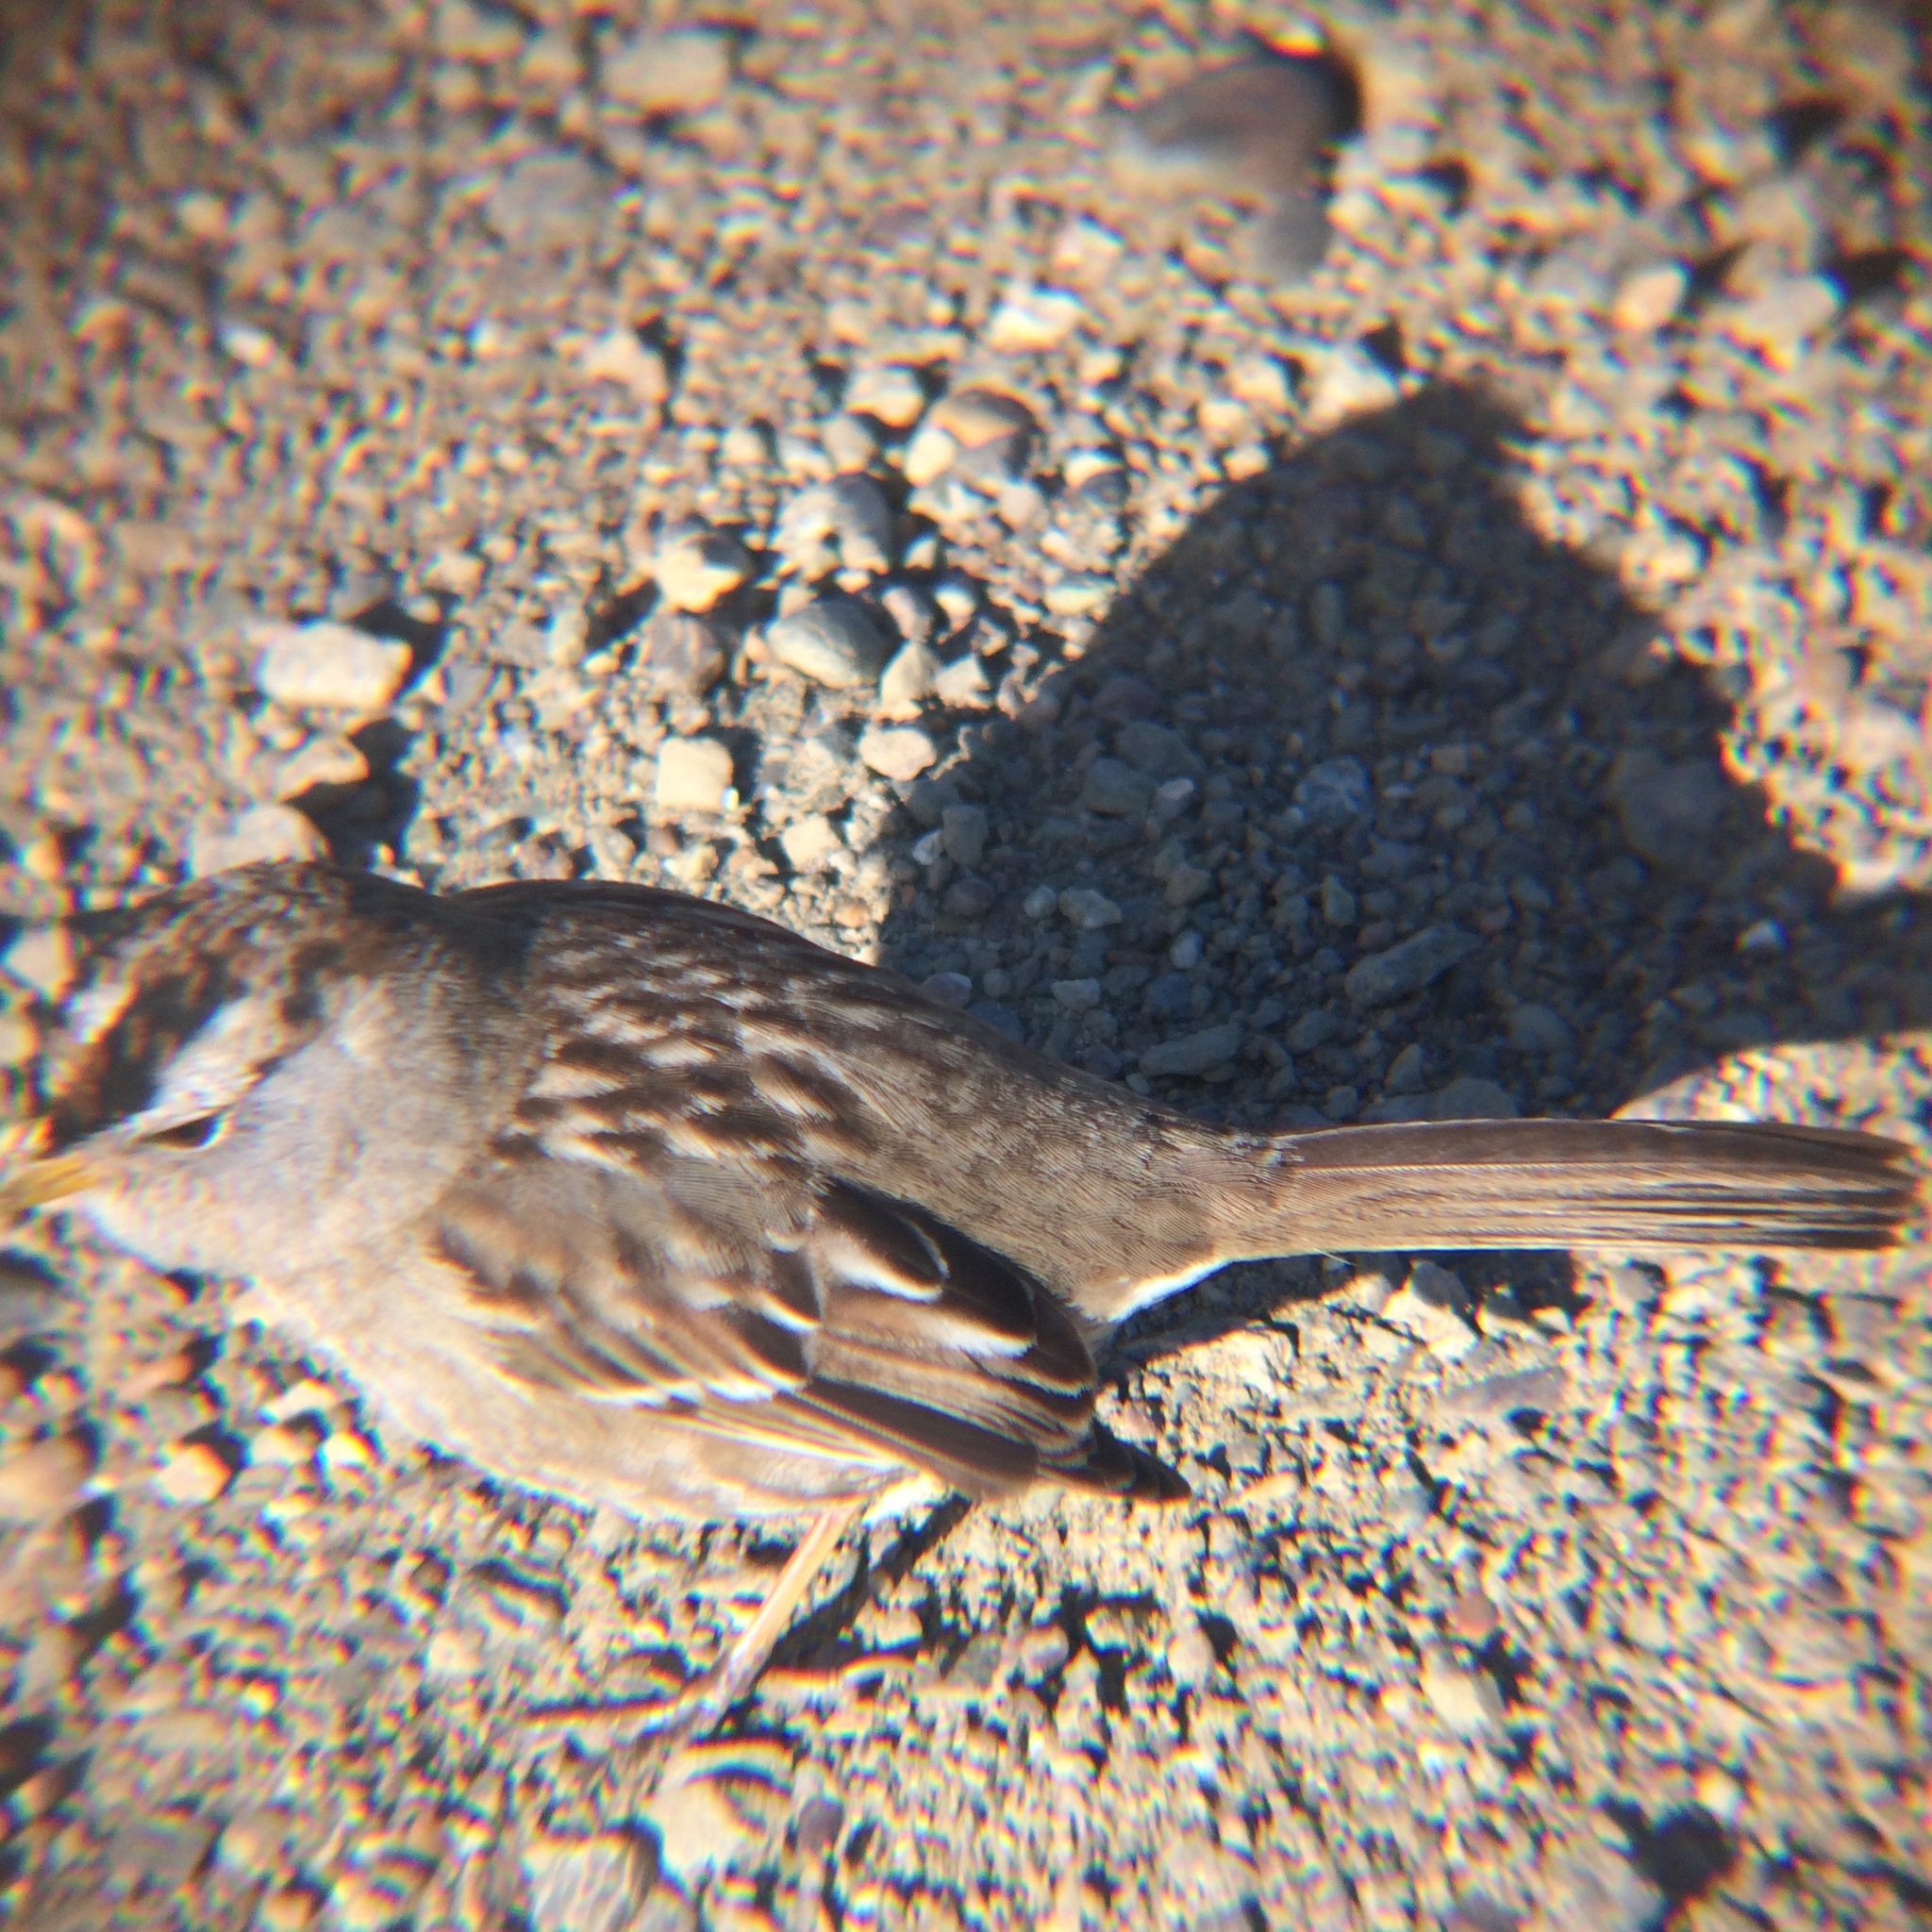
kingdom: Animalia
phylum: Chordata
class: Aves
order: Passeriformes
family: Passerellidae
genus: Zonotrichia
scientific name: Zonotrichia leucophrys
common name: White-crowned sparrow
